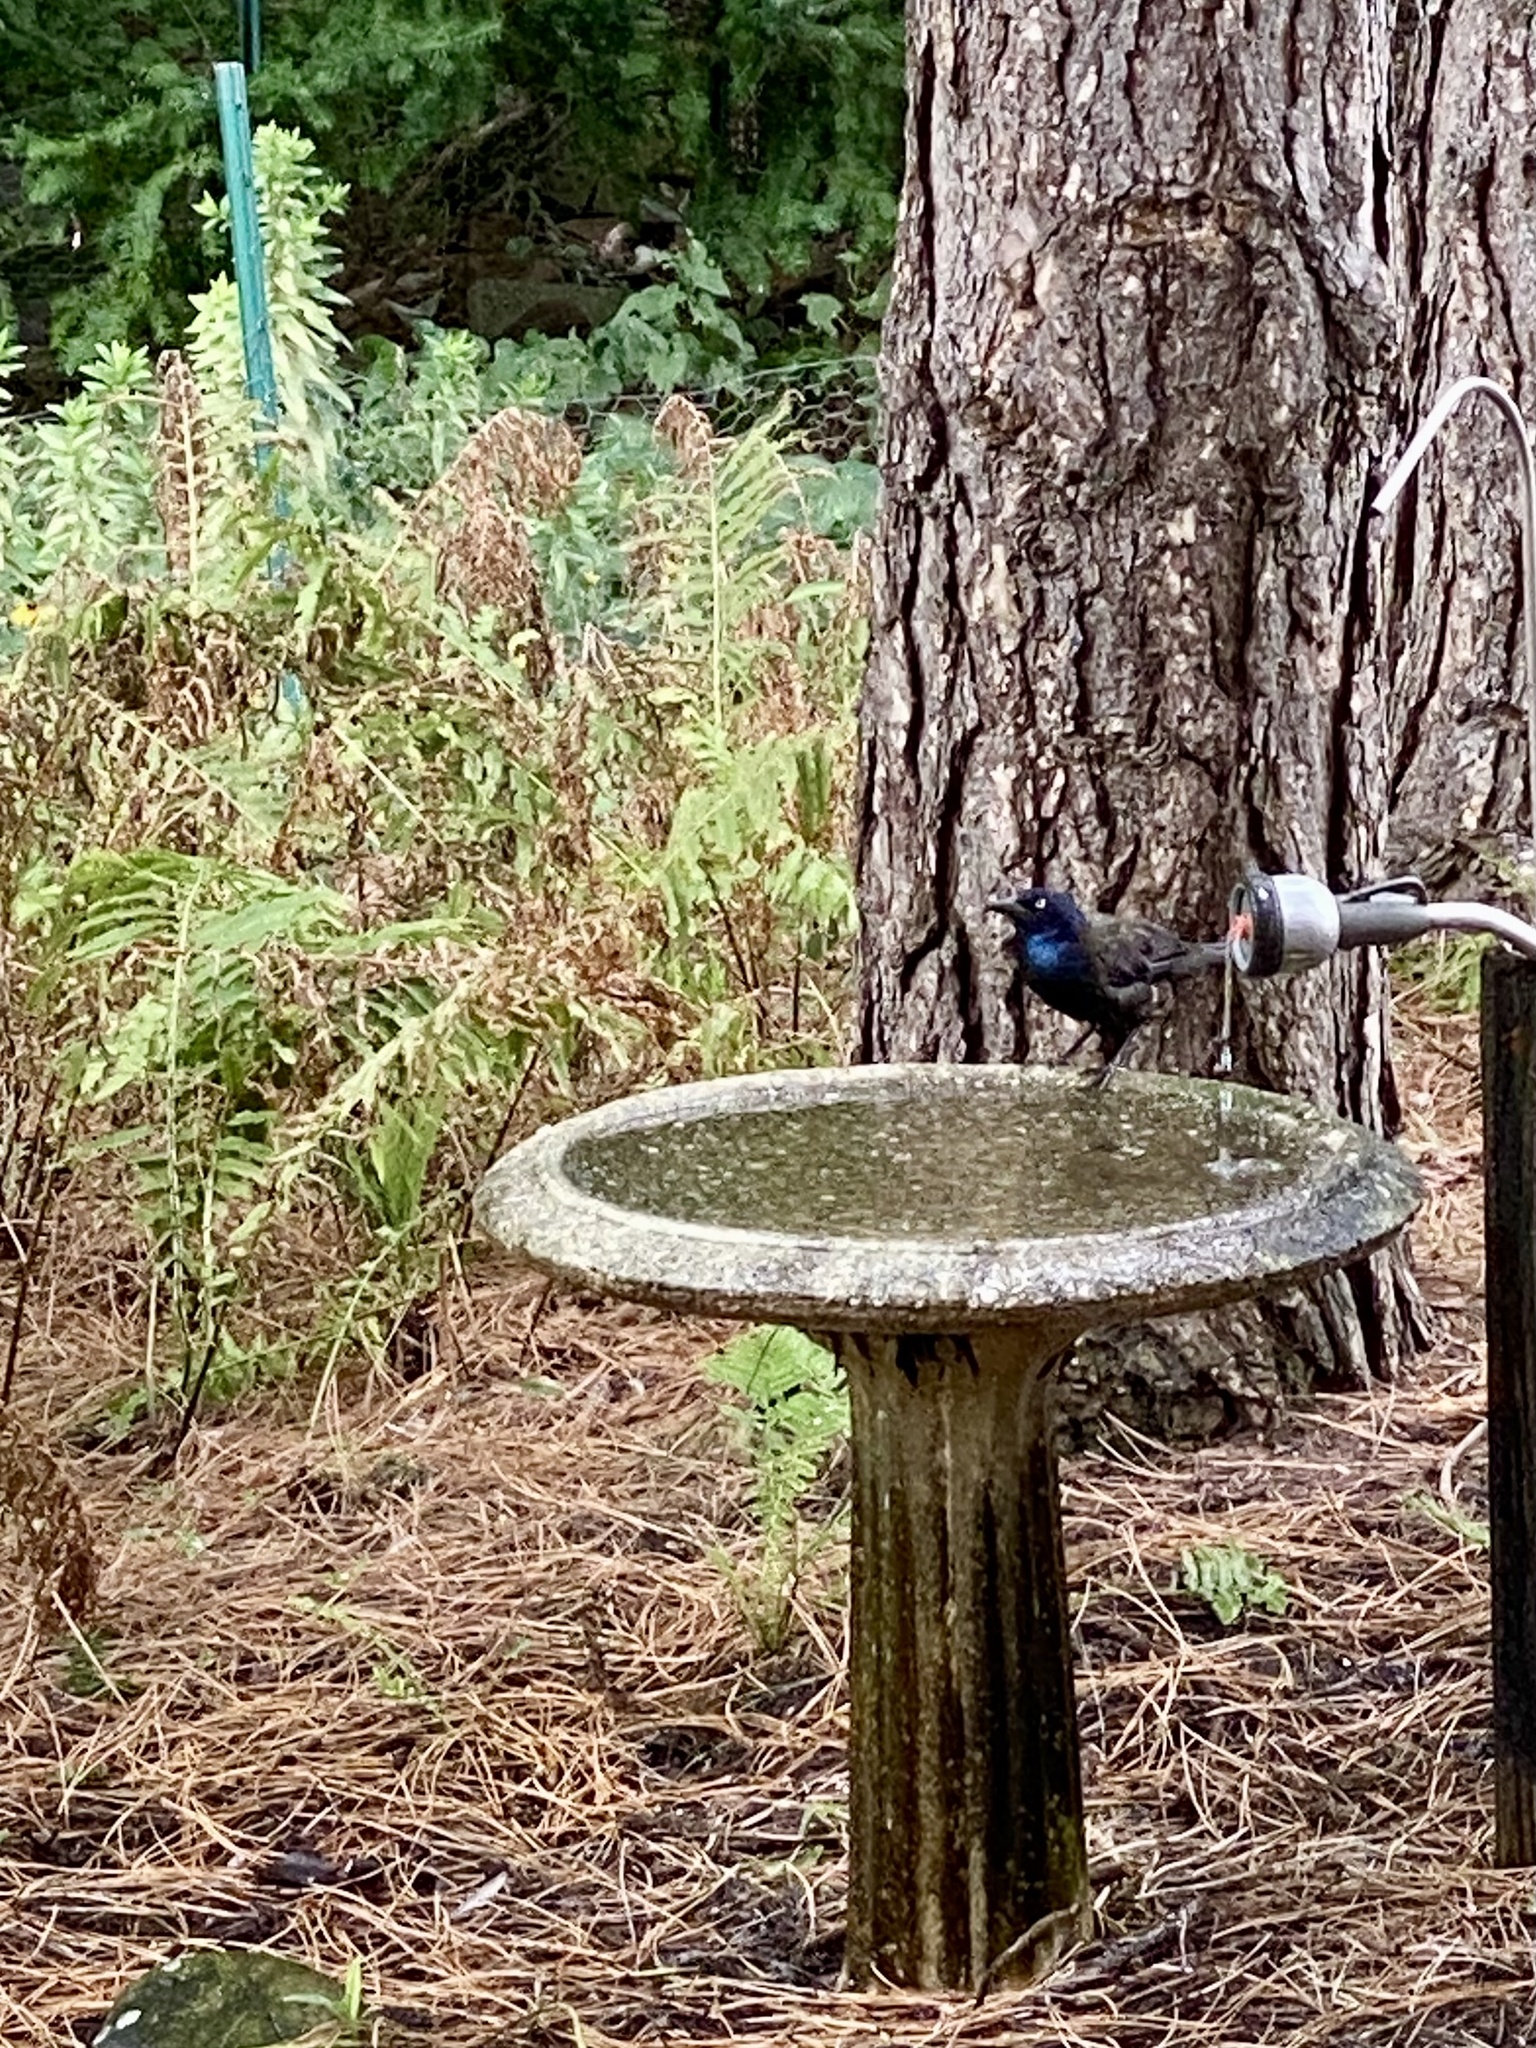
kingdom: Animalia
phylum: Chordata
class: Aves
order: Passeriformes
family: Icteridae
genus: Quiscalus
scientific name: Quiscalus quiscula
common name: Common grackle
